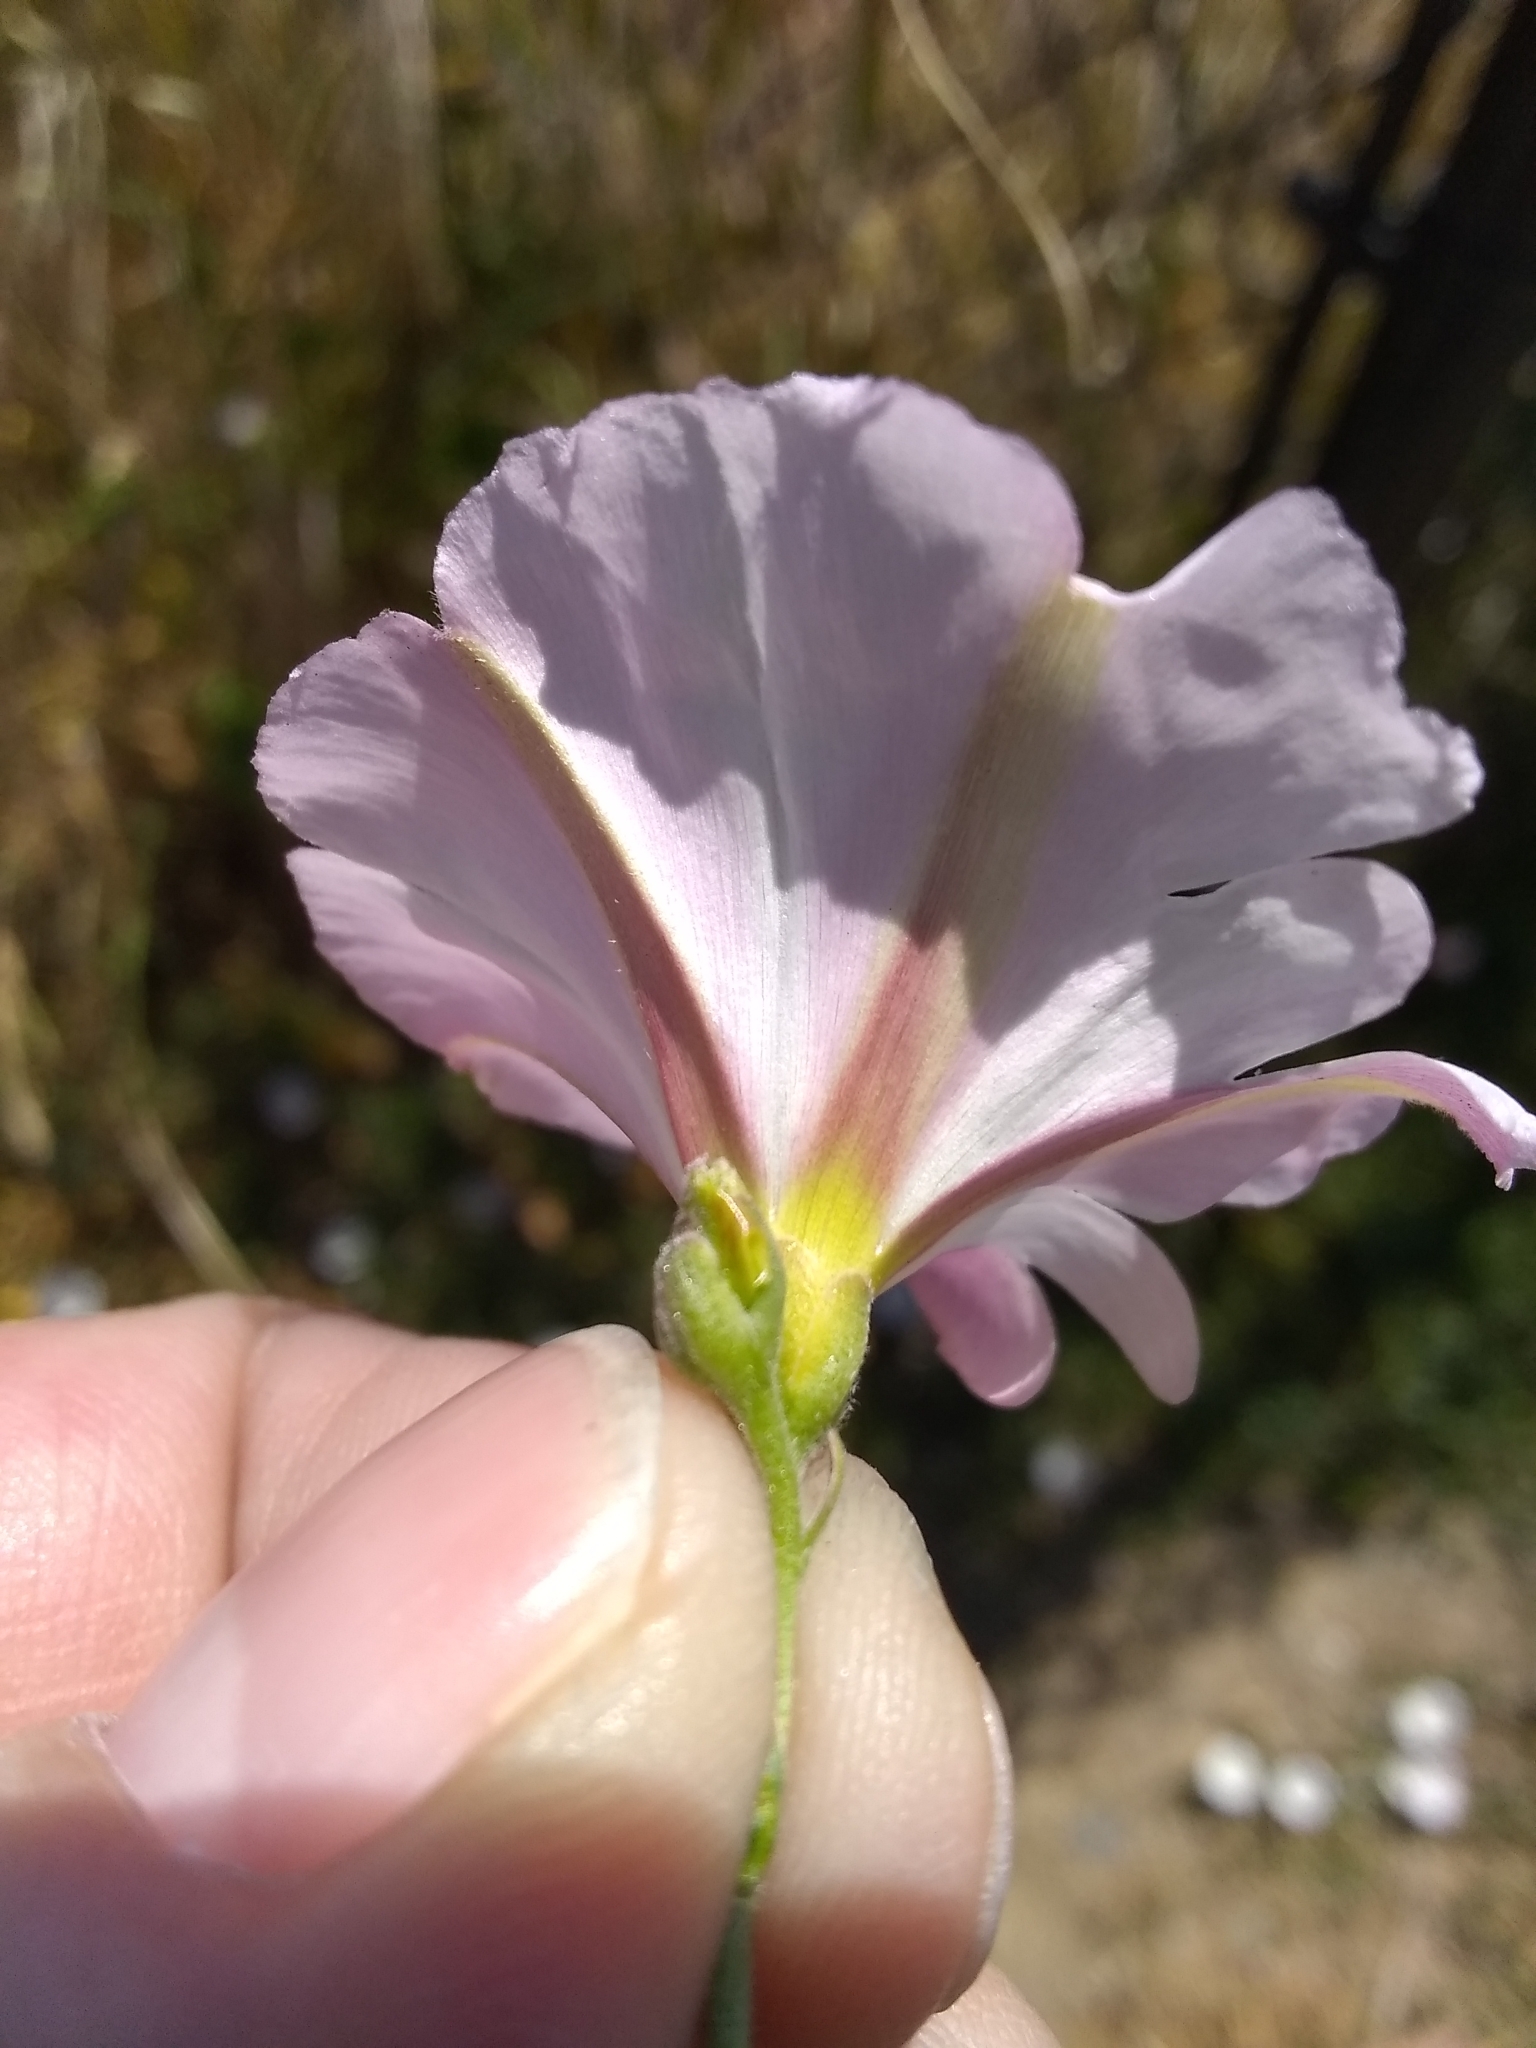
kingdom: Plantae
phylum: Tracheophyta
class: Magnoliopsida
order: Solanales
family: Convolvulaceae
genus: Convolvulus
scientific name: Convolvulus arvensis
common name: Field bindweed
